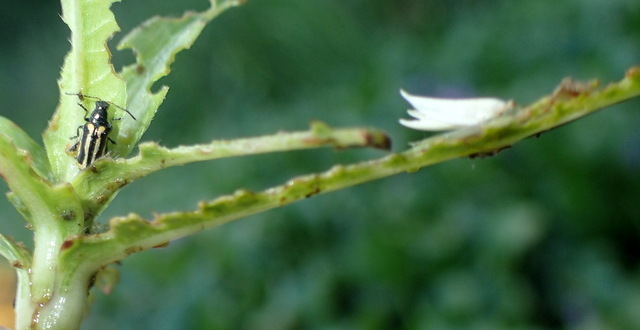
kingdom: Animalia
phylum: Arthropoda
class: Insecta
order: Coleoptera
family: Chrysomelidae
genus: Agasicles
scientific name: Agasicles hygrophila
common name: Alligatorweed flea beetle
